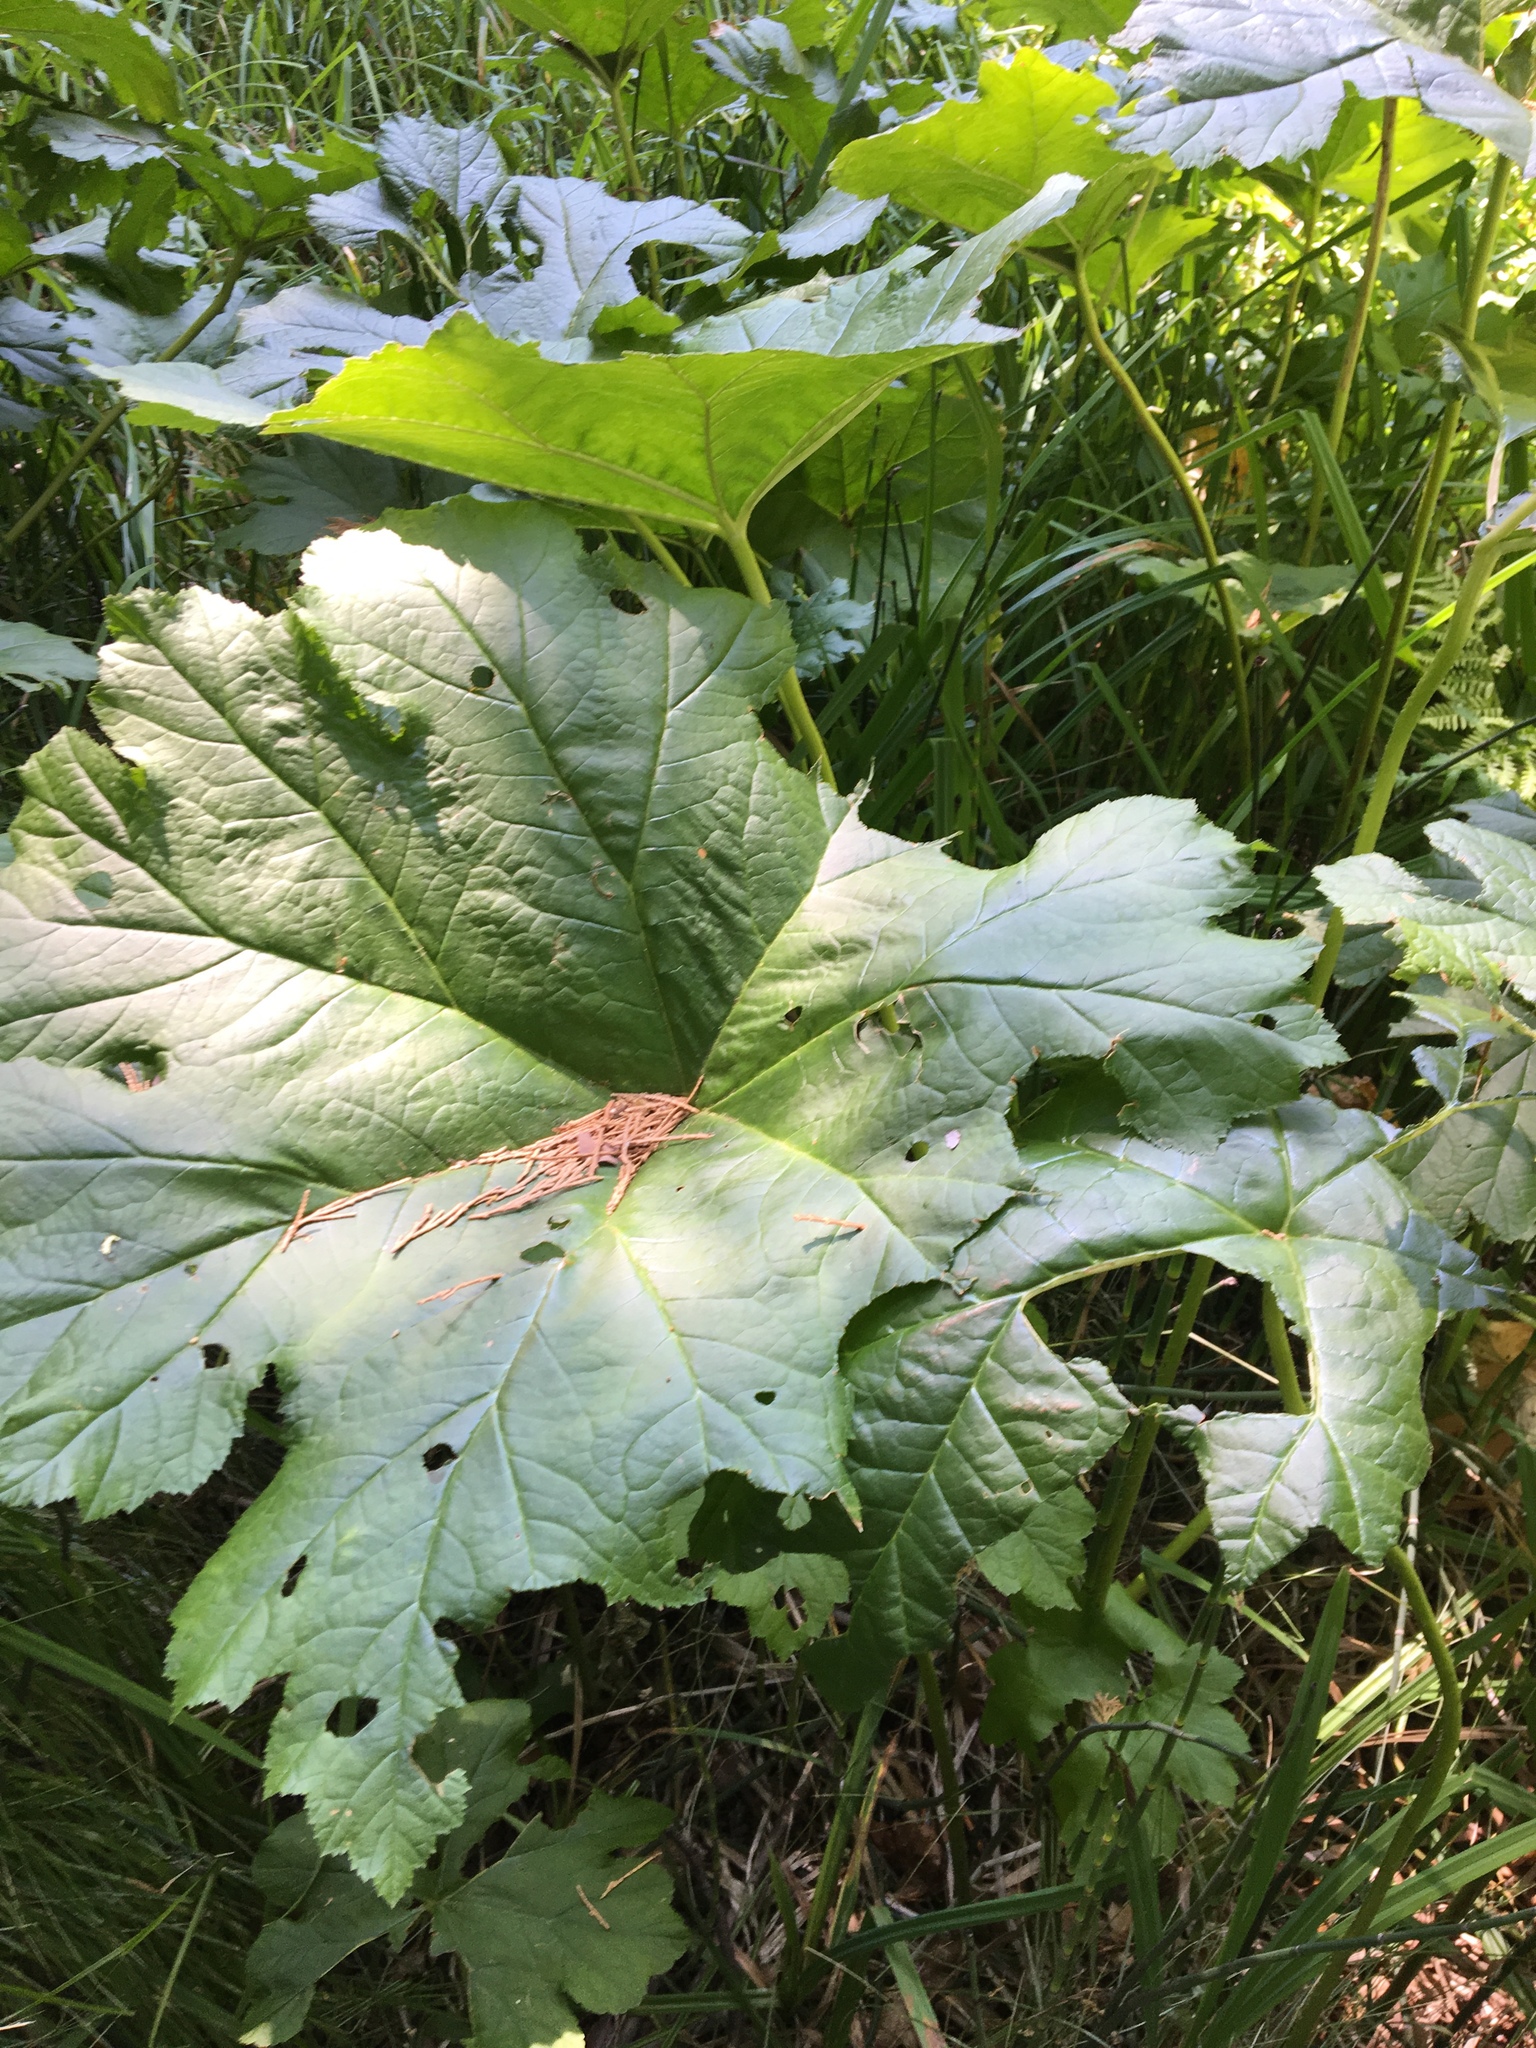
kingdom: Plantae
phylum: Tracheophyta
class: Magnoliopsida
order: Saxifragales
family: Saxifragaceae
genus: Darmera
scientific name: Darmera peltata
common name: Indian-rhubarb
